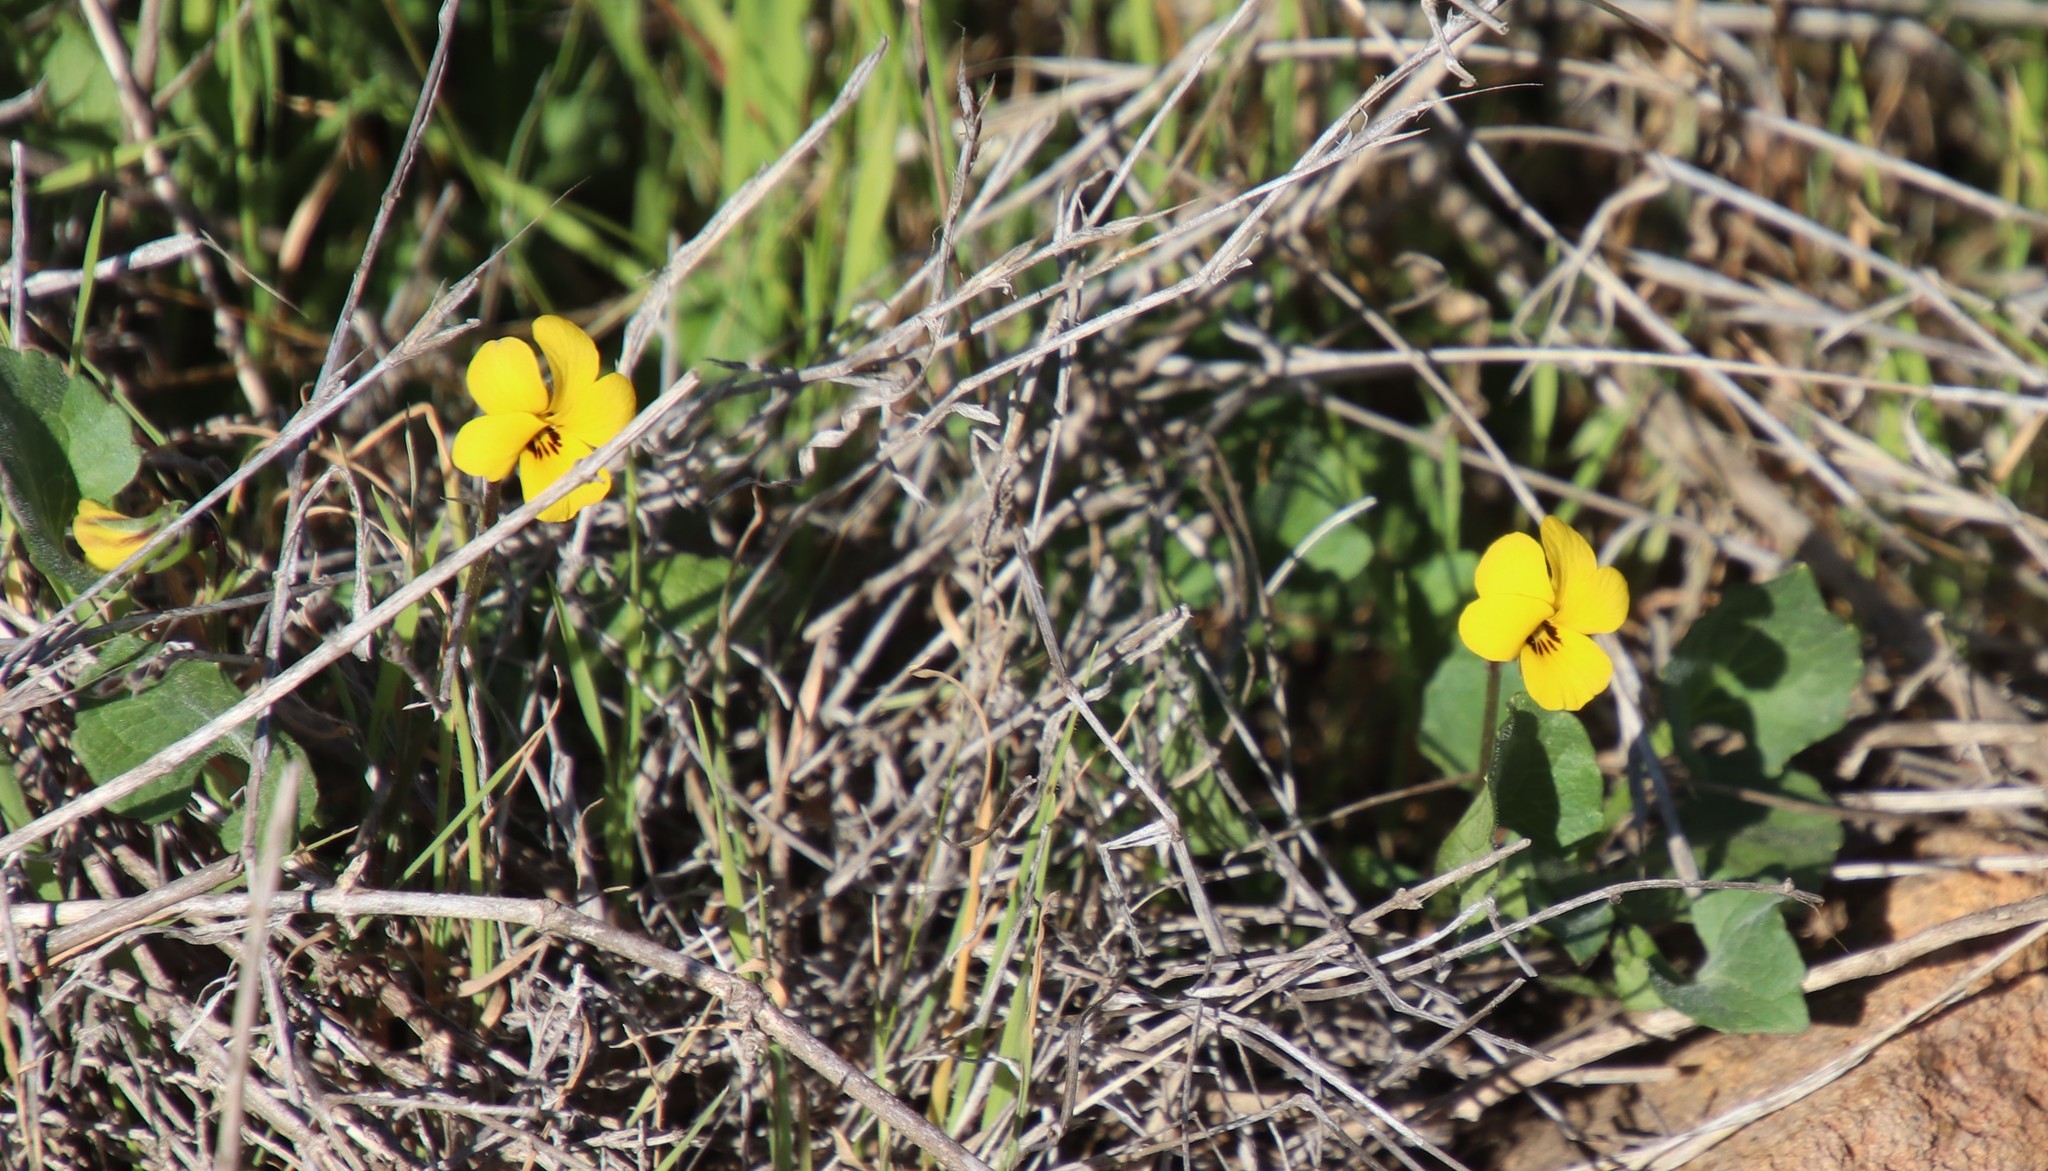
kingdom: Plantae
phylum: Tracheophyta
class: Magnoliopsida
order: Malpighiales
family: Violaceae
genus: Viola
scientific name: Viola pedunculata
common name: California golden violet
